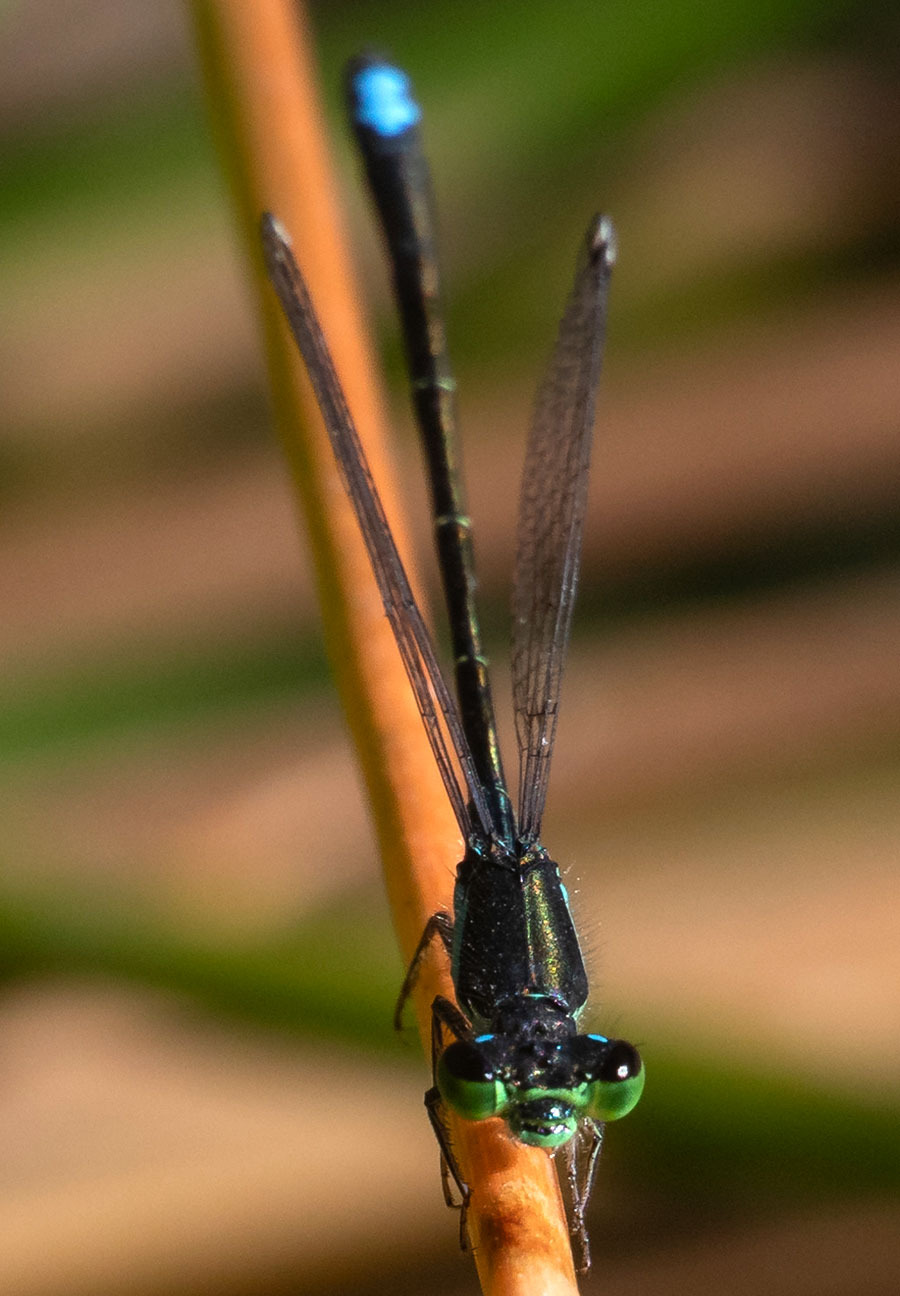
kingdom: Animalia
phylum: Arthropoda
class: Insecta
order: Odonata
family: Coenagrionidae
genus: Ischnura
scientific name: Ischnura denticollis
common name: Black-fronted forktail
